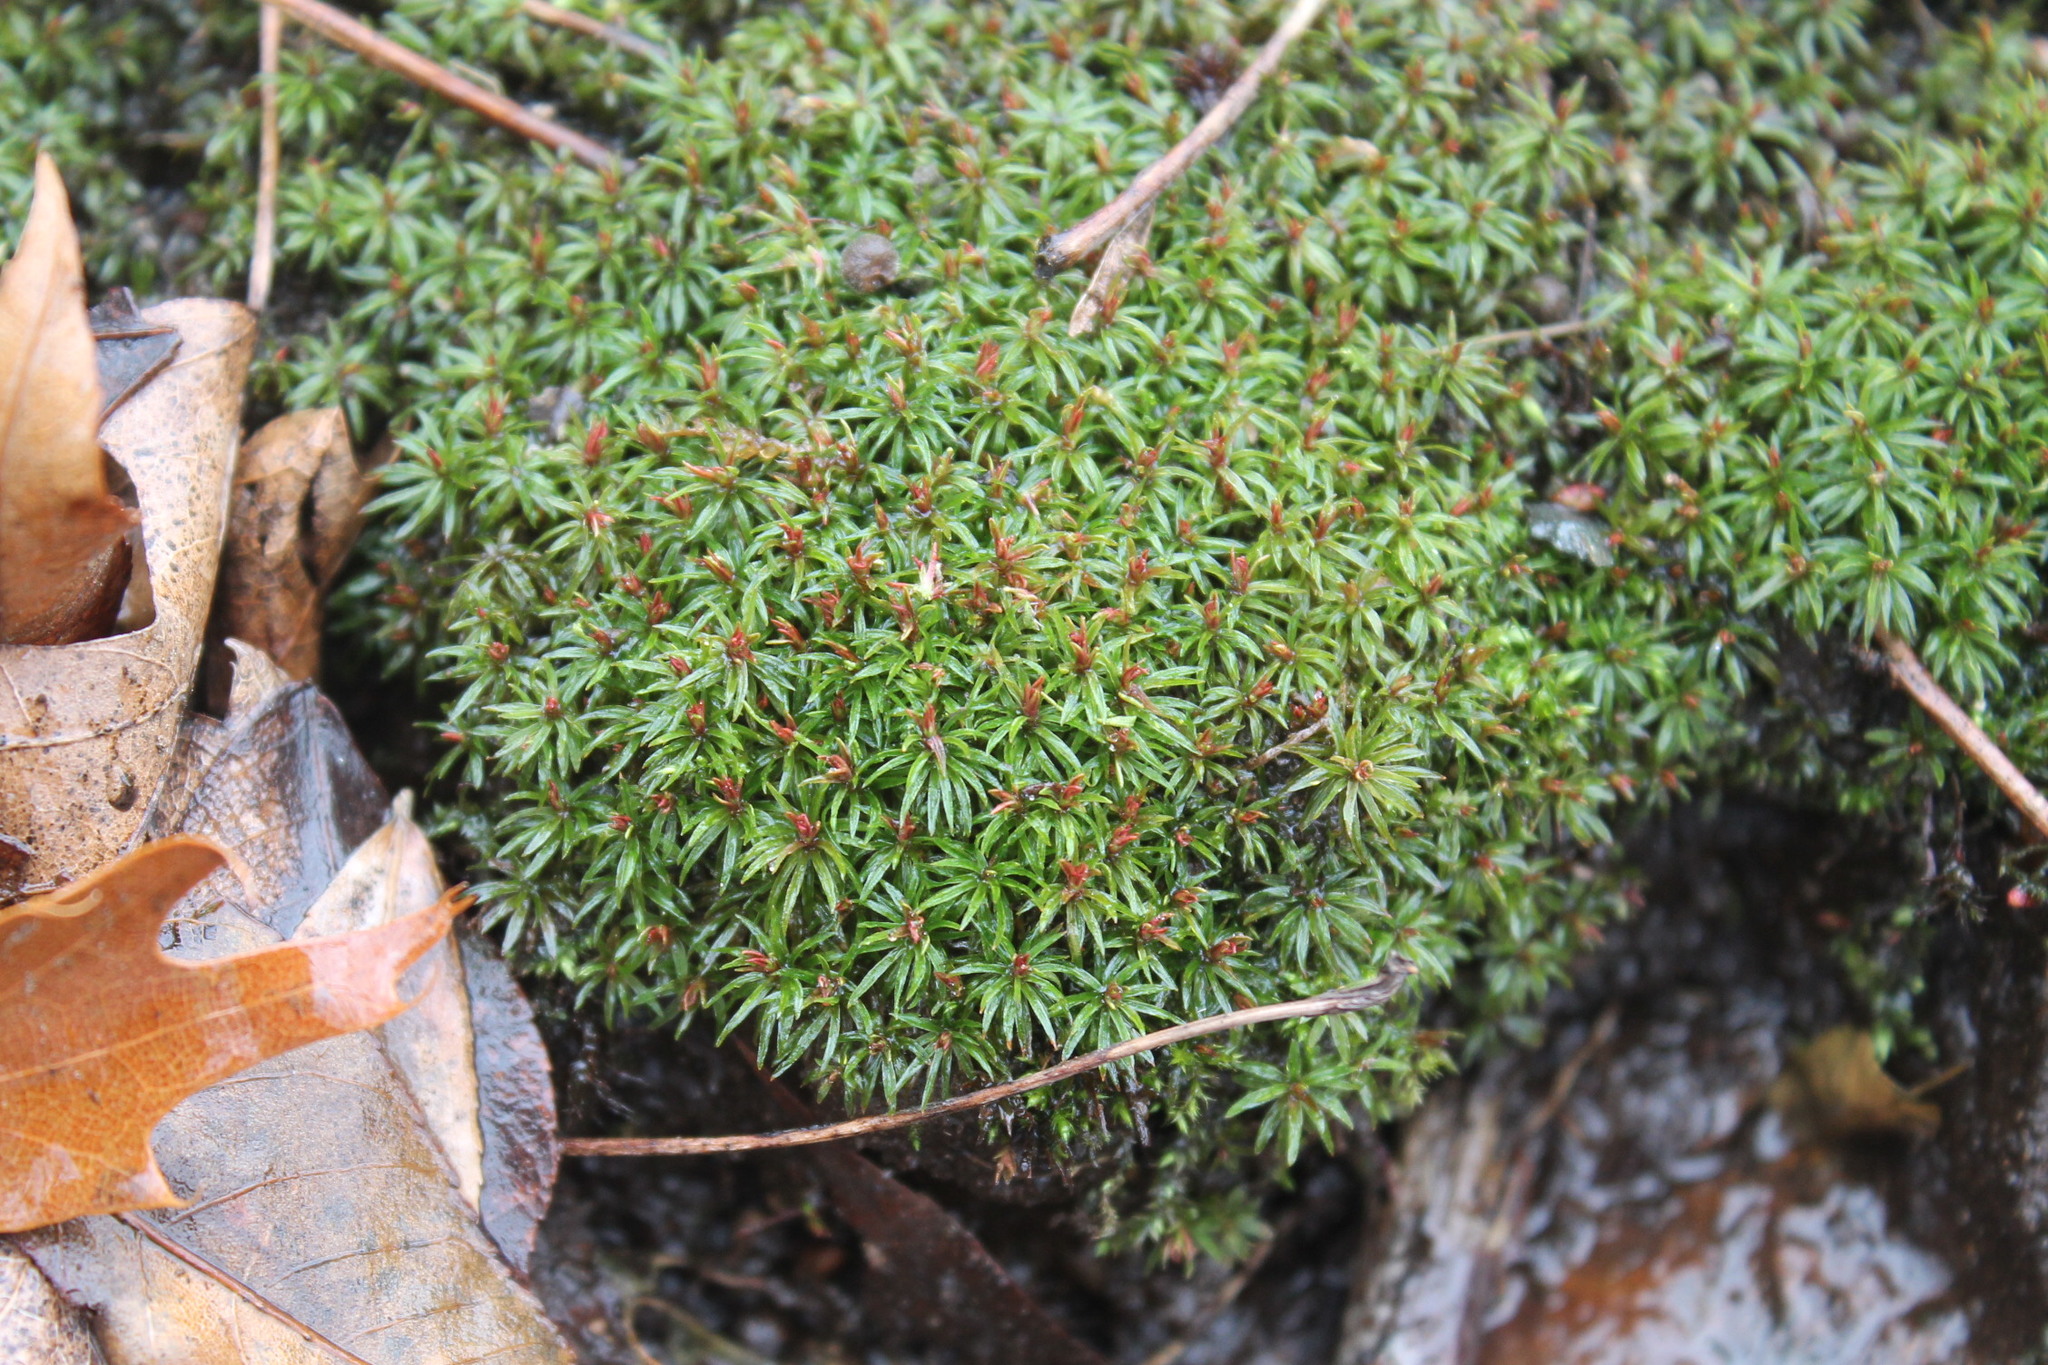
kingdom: Plantae
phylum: Bryophyta
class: Polytrichopsida
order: Polytrichales
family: Polytrichaceae
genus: Atrichum
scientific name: Atrichum angustatum
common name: Lesser smoothcap
